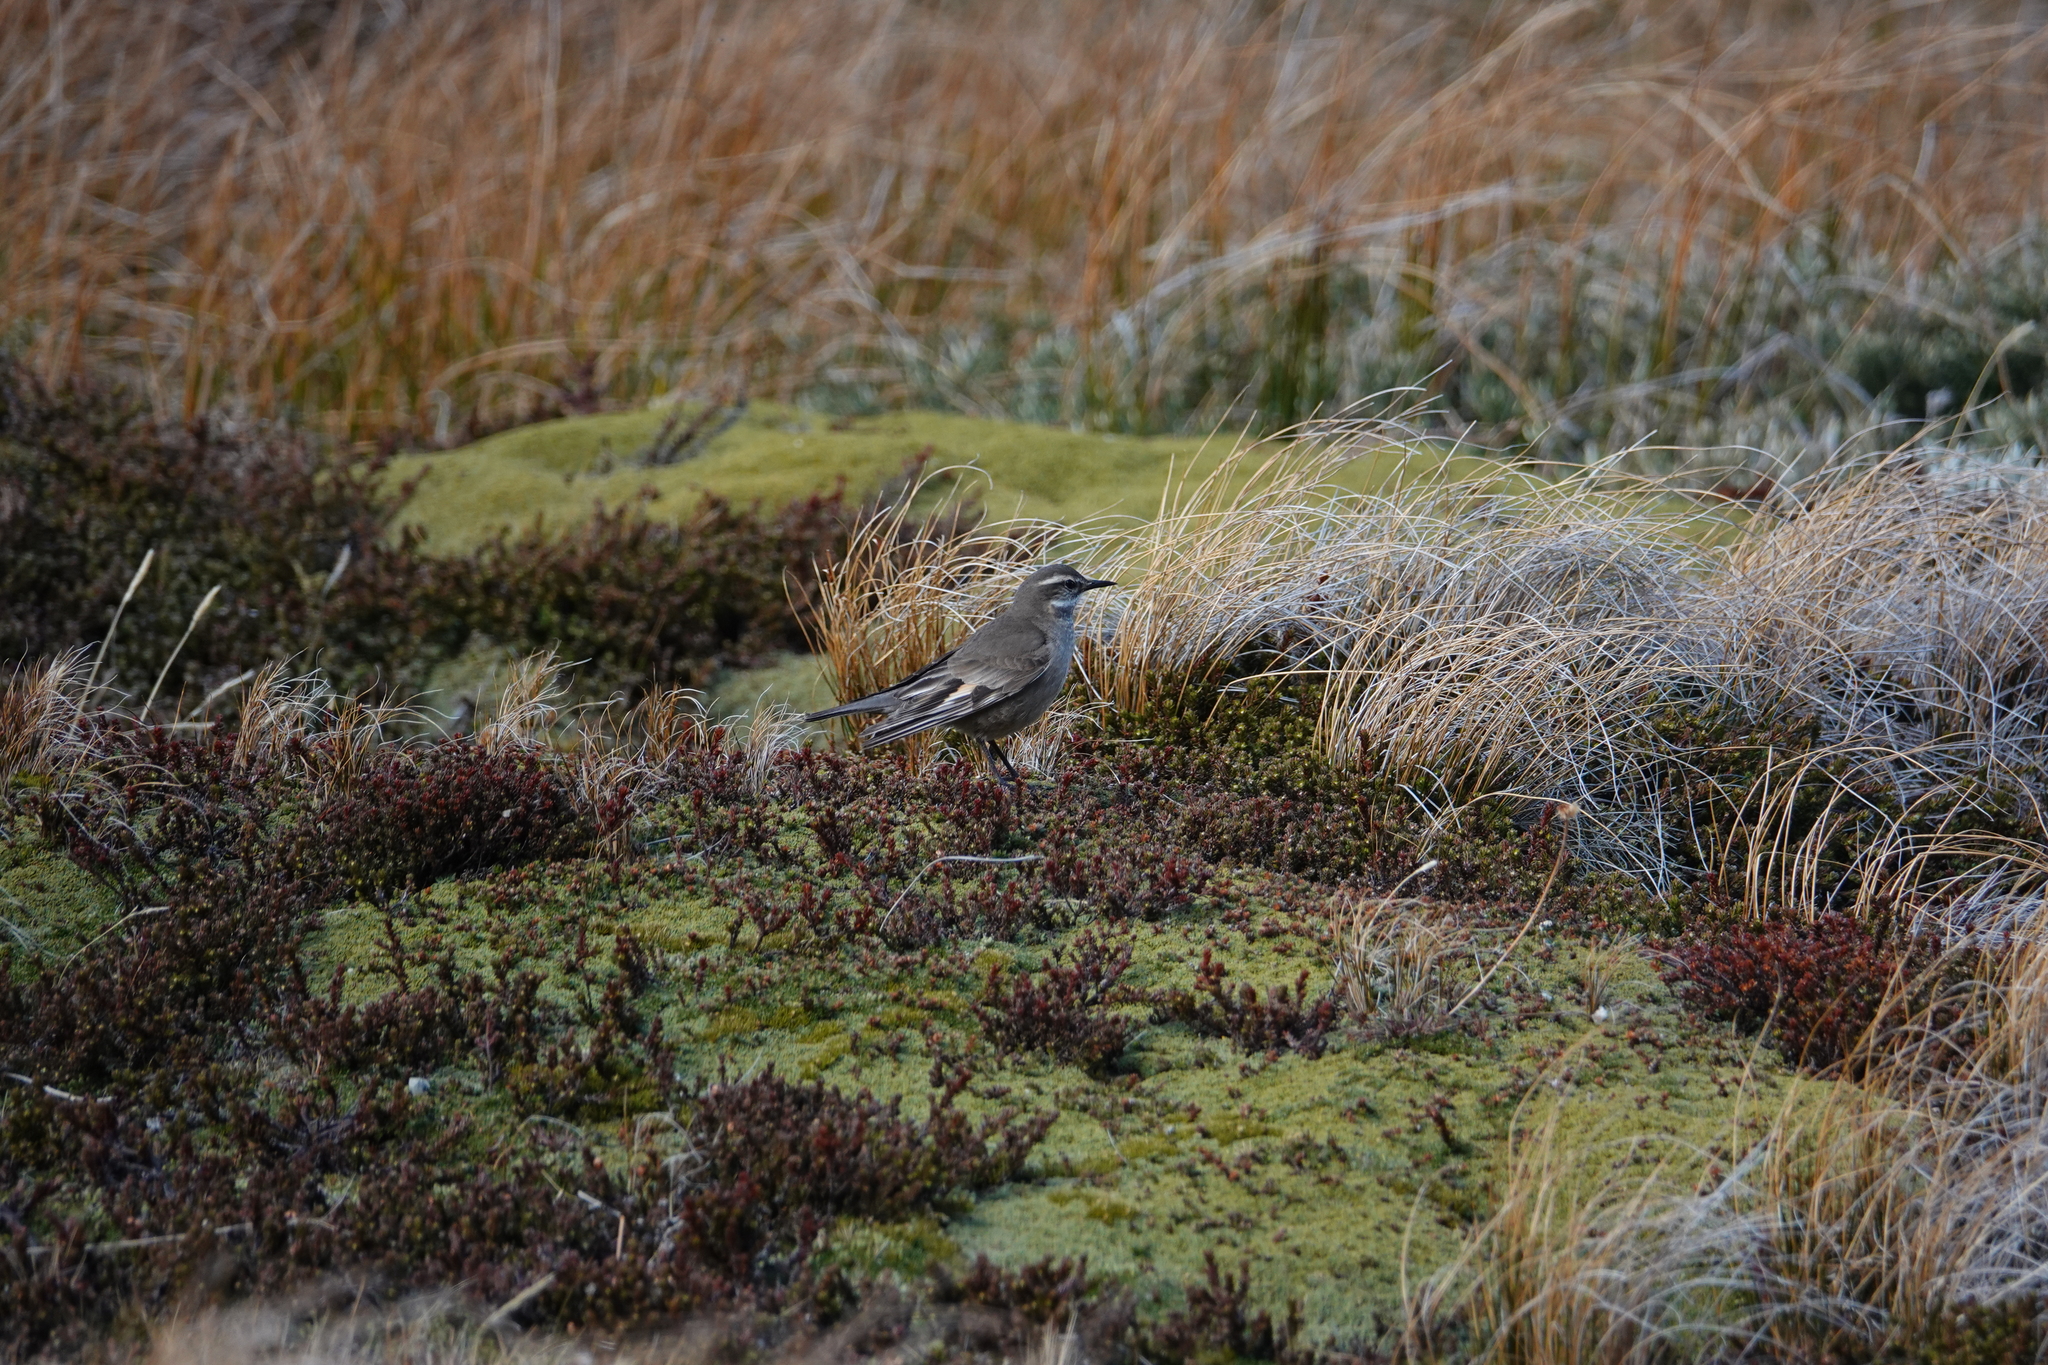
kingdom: Animalia
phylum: Chordata
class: Aves
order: Passeriformes
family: Furnariidae
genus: Cinclodes
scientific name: Cinclodes fuscus
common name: Buff-winged cinclodes
